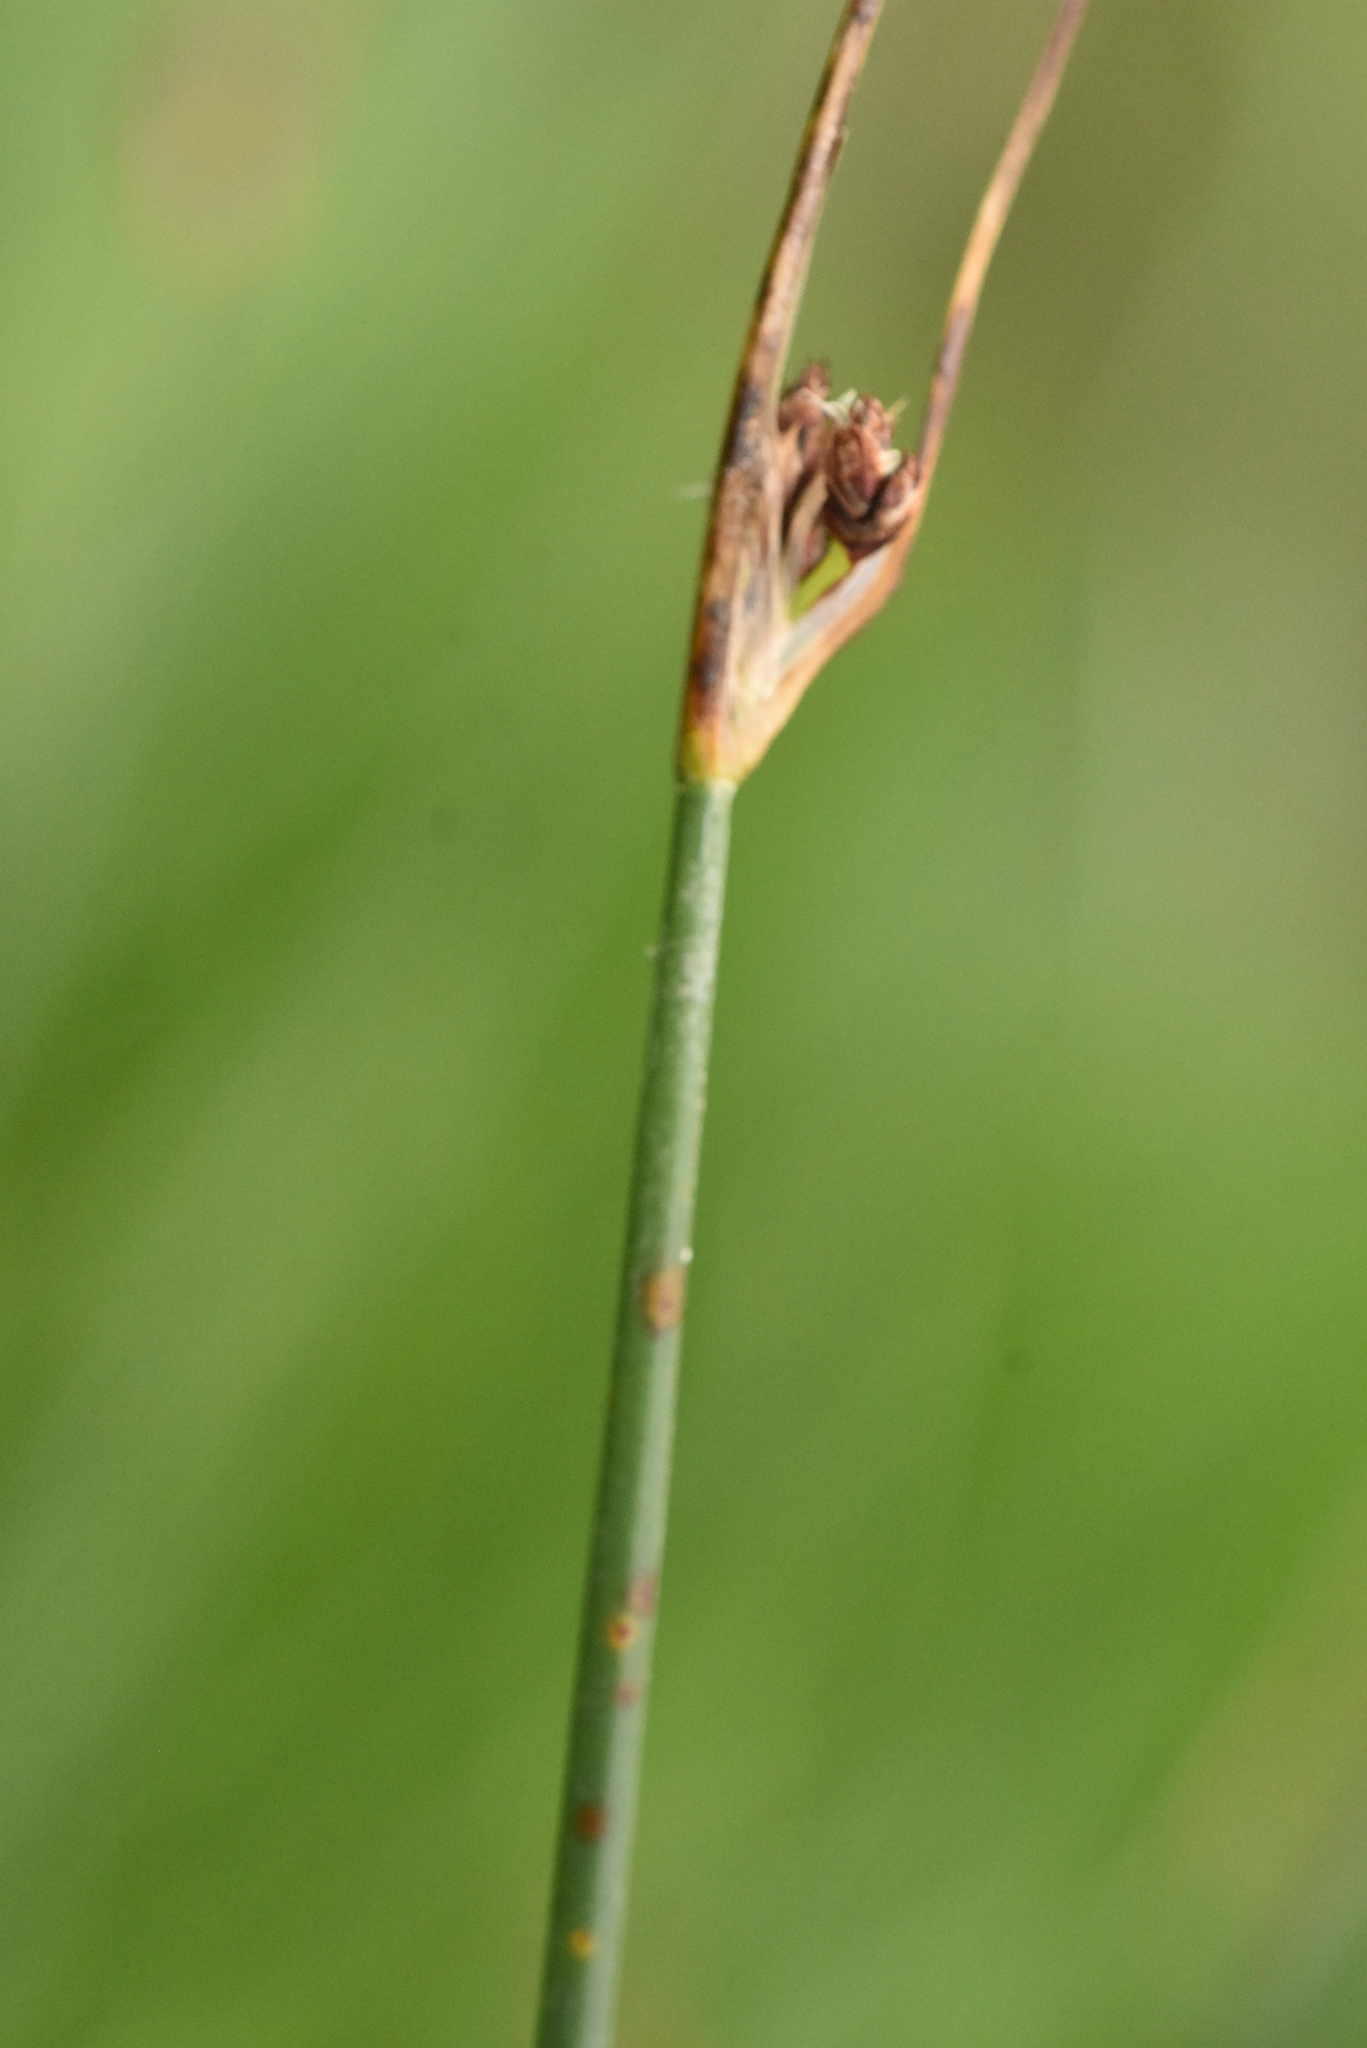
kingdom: Plantae
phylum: Tracheophyta
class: Liliopsida
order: Poales
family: Cyperaceae
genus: Schoenoplectus
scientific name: Schoenoplectus lacustris
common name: Common club-rush
